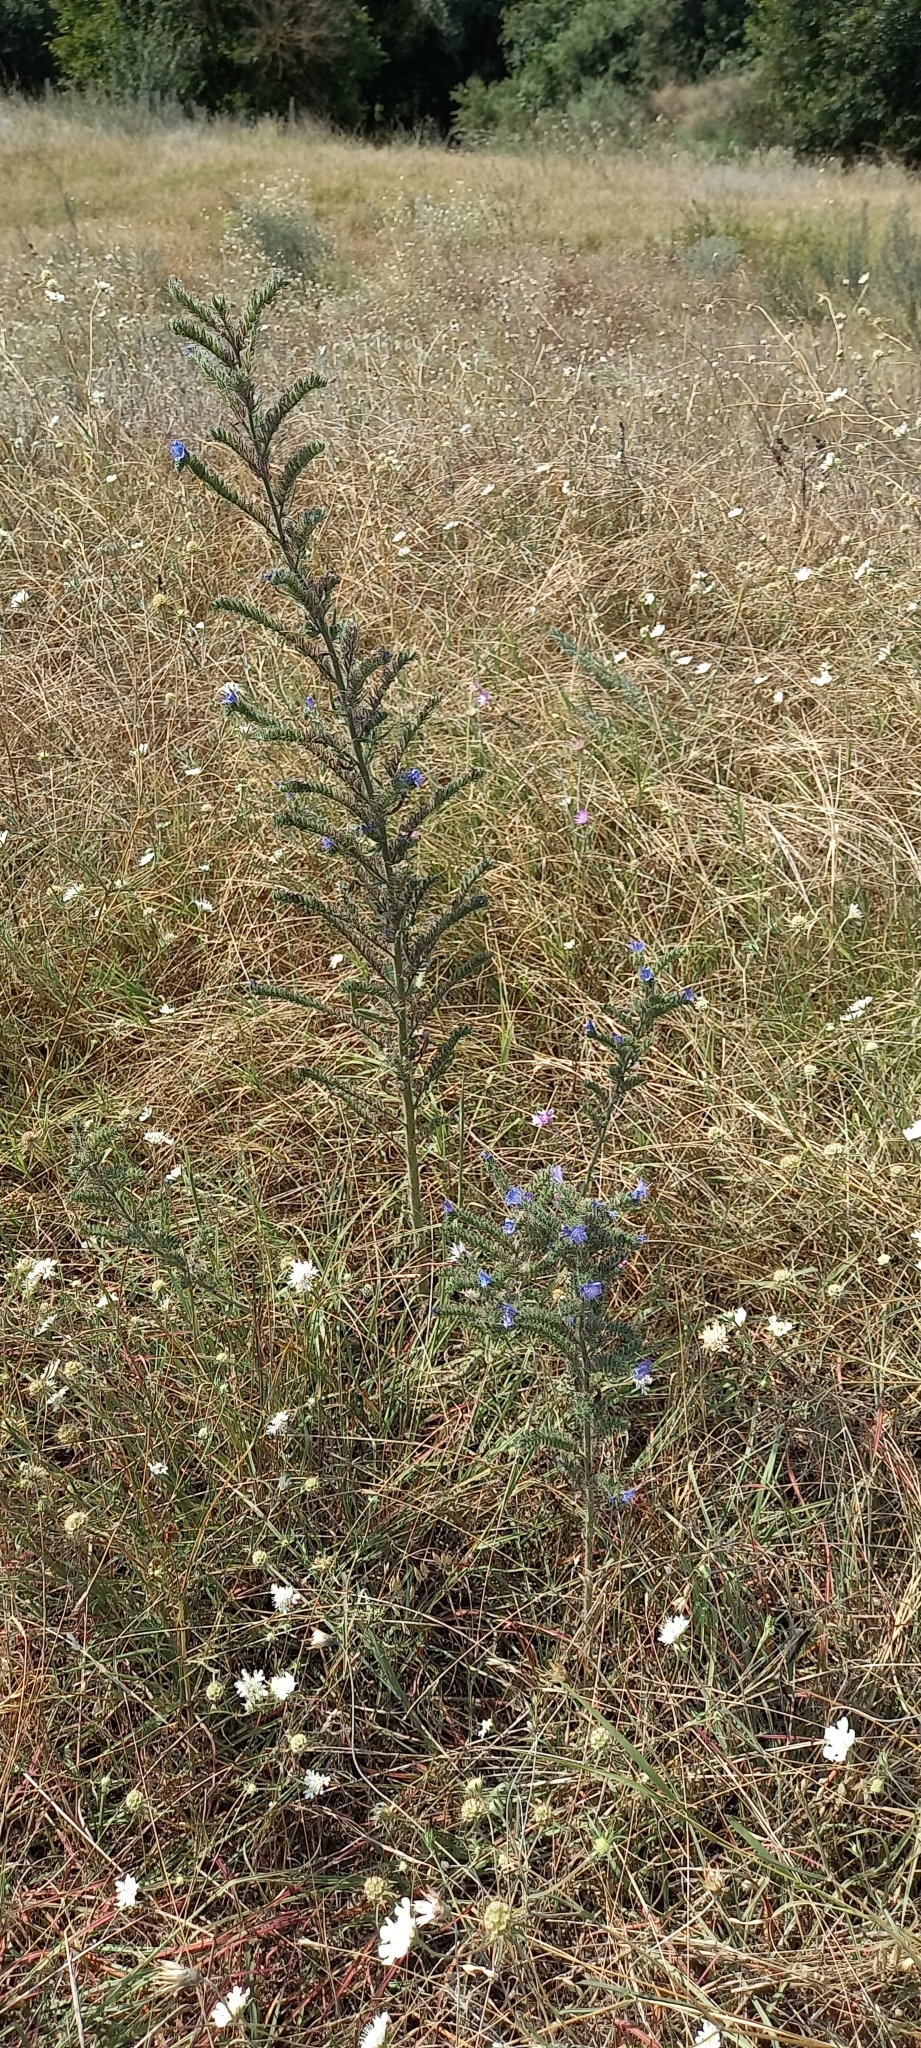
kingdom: Plantae
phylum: Tracheophyta
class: Magnoliopsida
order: Boraginales
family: Boraginaceae
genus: Echium
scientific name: Echium vulgare
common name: Common viper's bugloss
